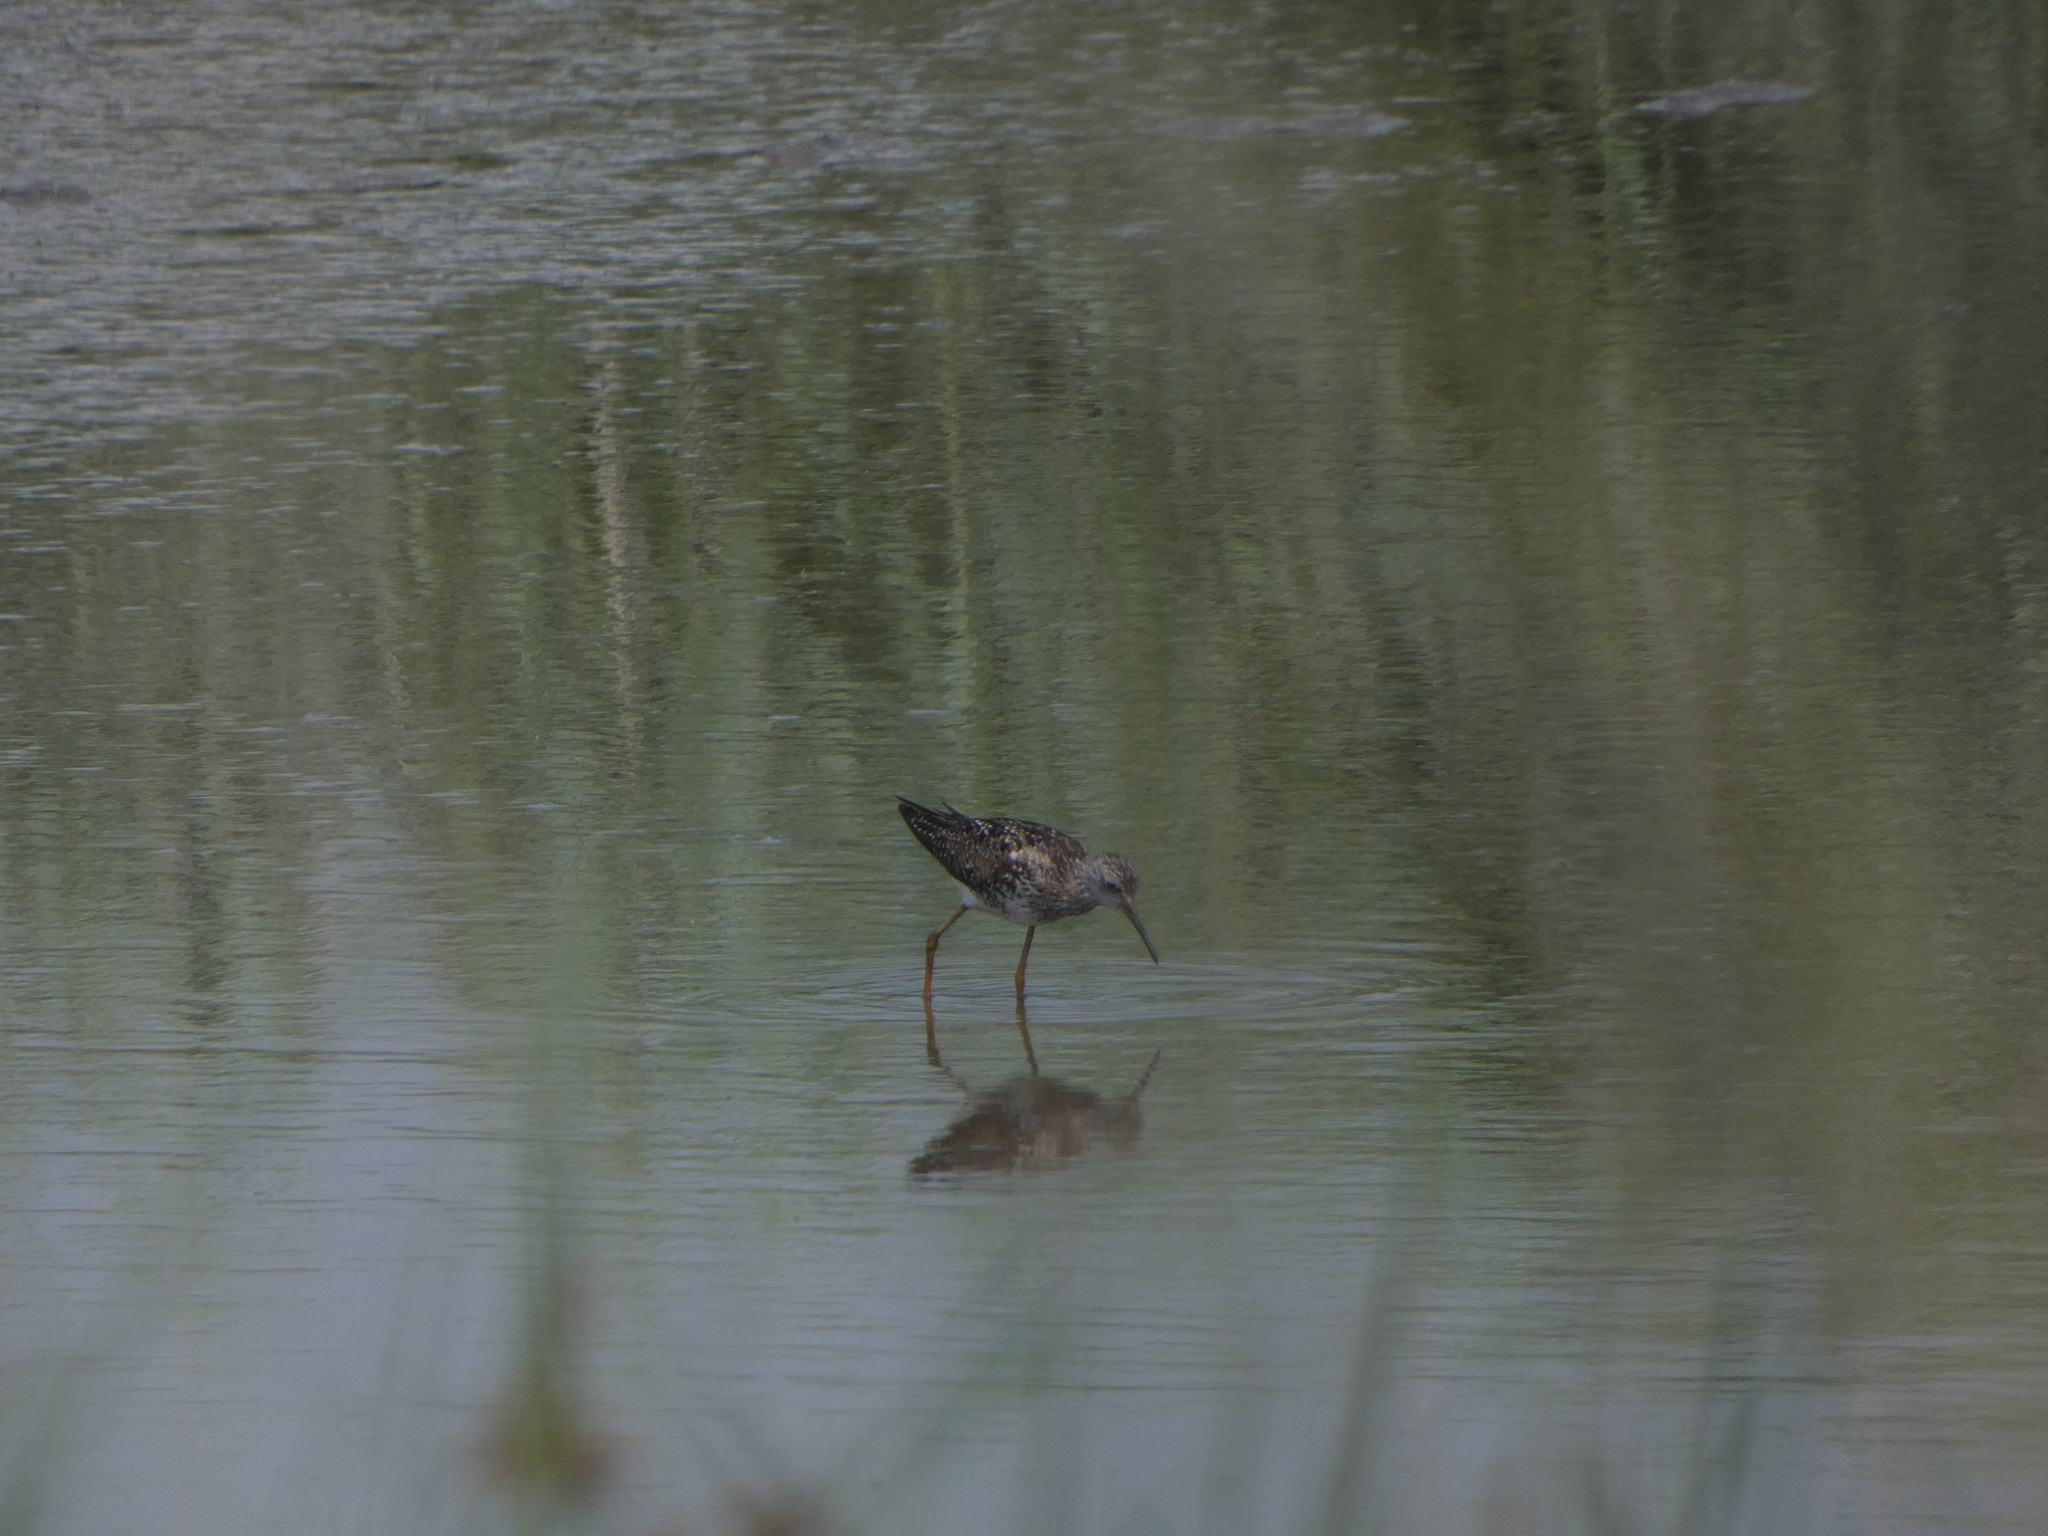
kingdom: Animalia
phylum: Chordata
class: Aves
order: Charadriiformes
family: Scolopacidae
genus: Tringa
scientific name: Tringa flavipes
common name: Lesser yellowlegs
